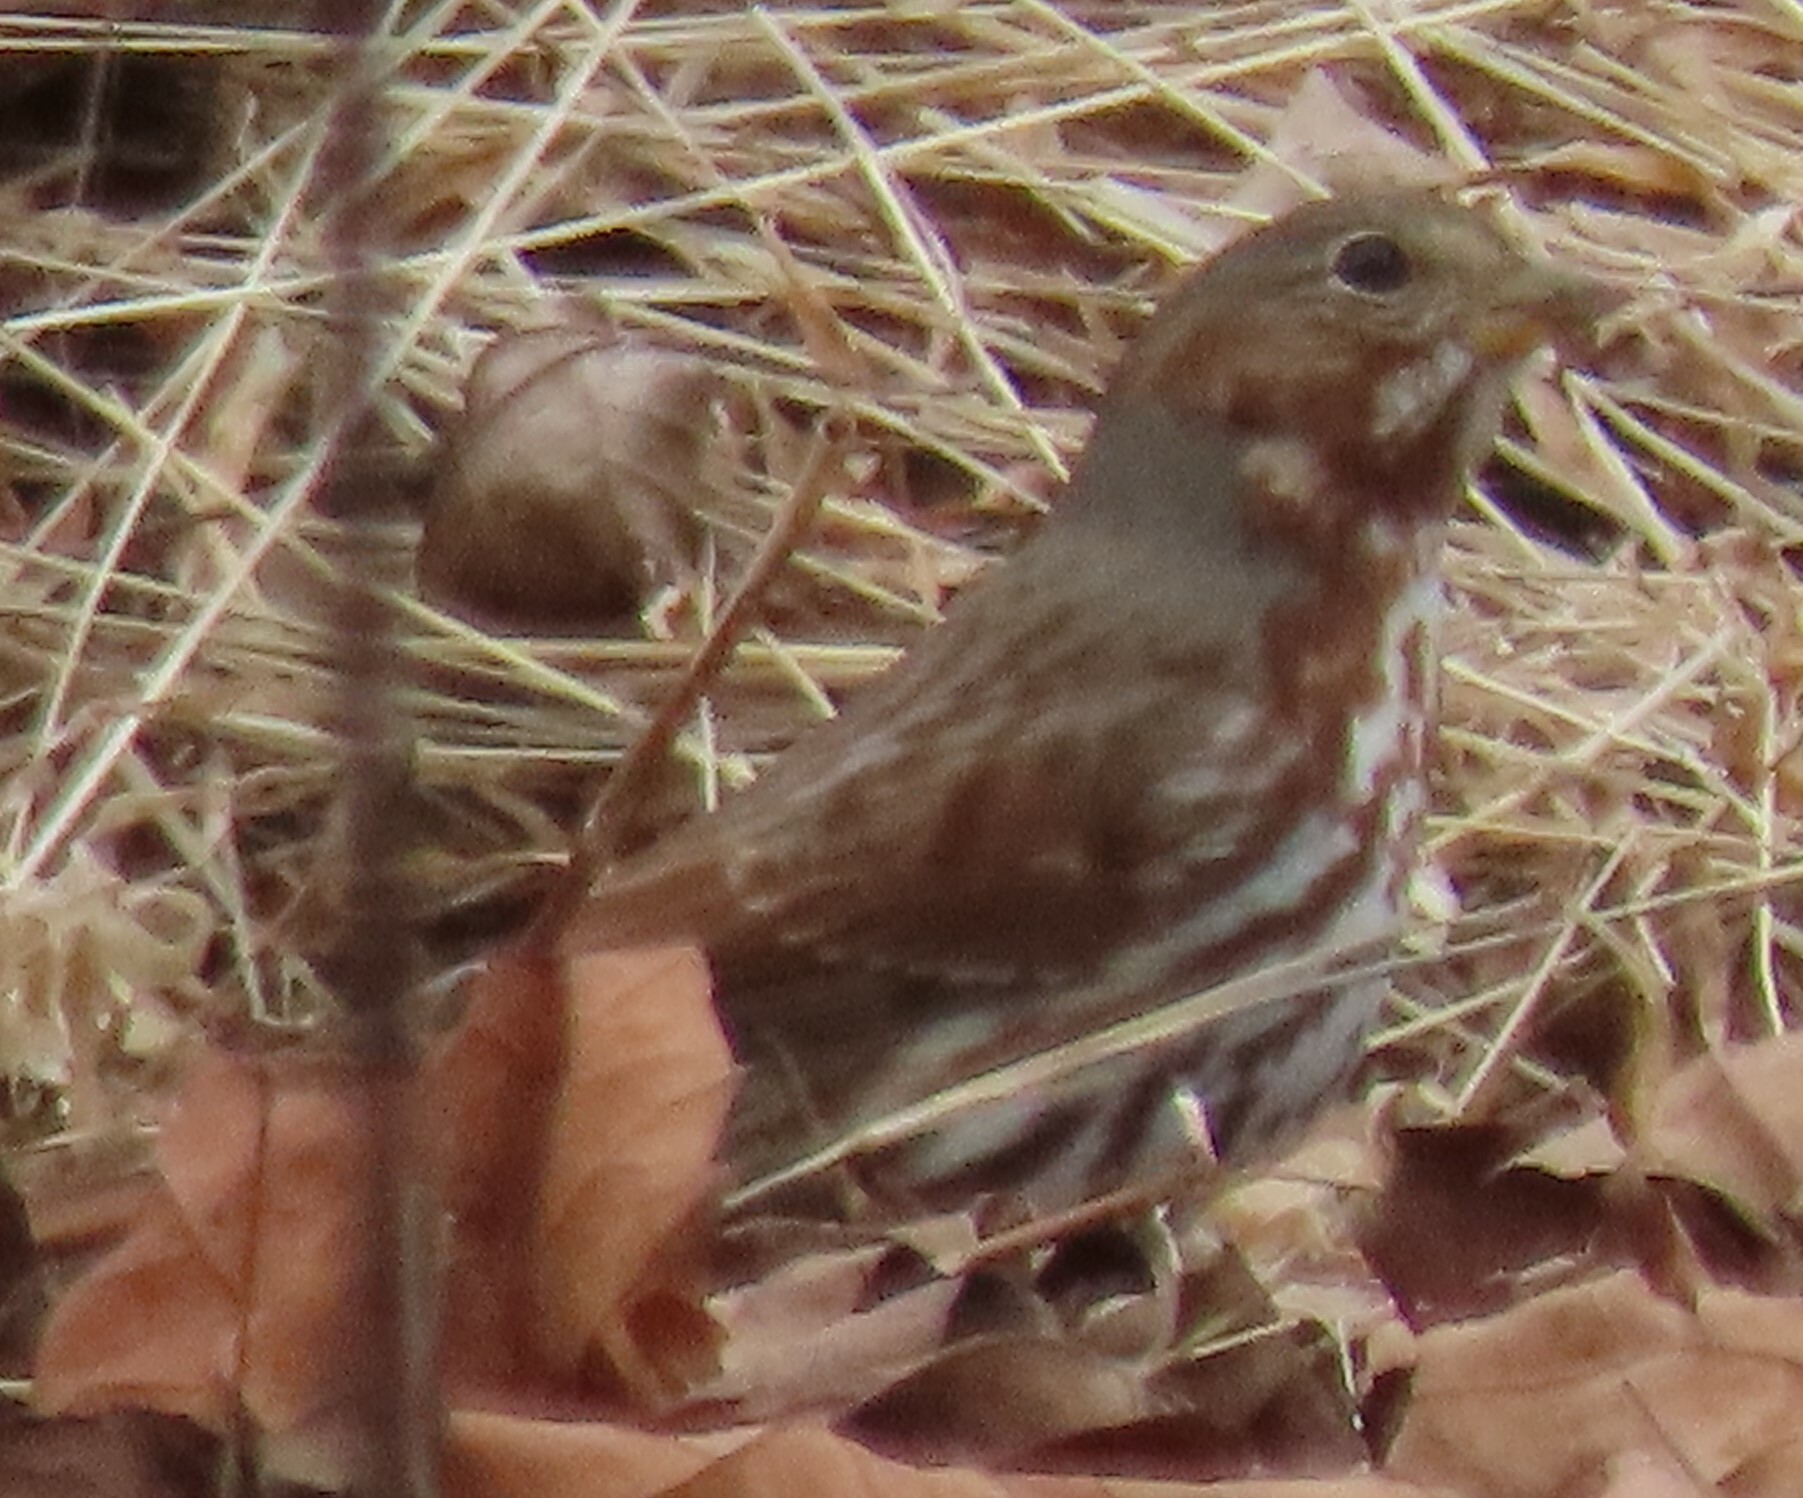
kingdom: Animalia
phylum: Chordata
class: Aves
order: Passeriformes
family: Passerellidae
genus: Passerella
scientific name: Passerella iliaca
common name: Fox sparrow
